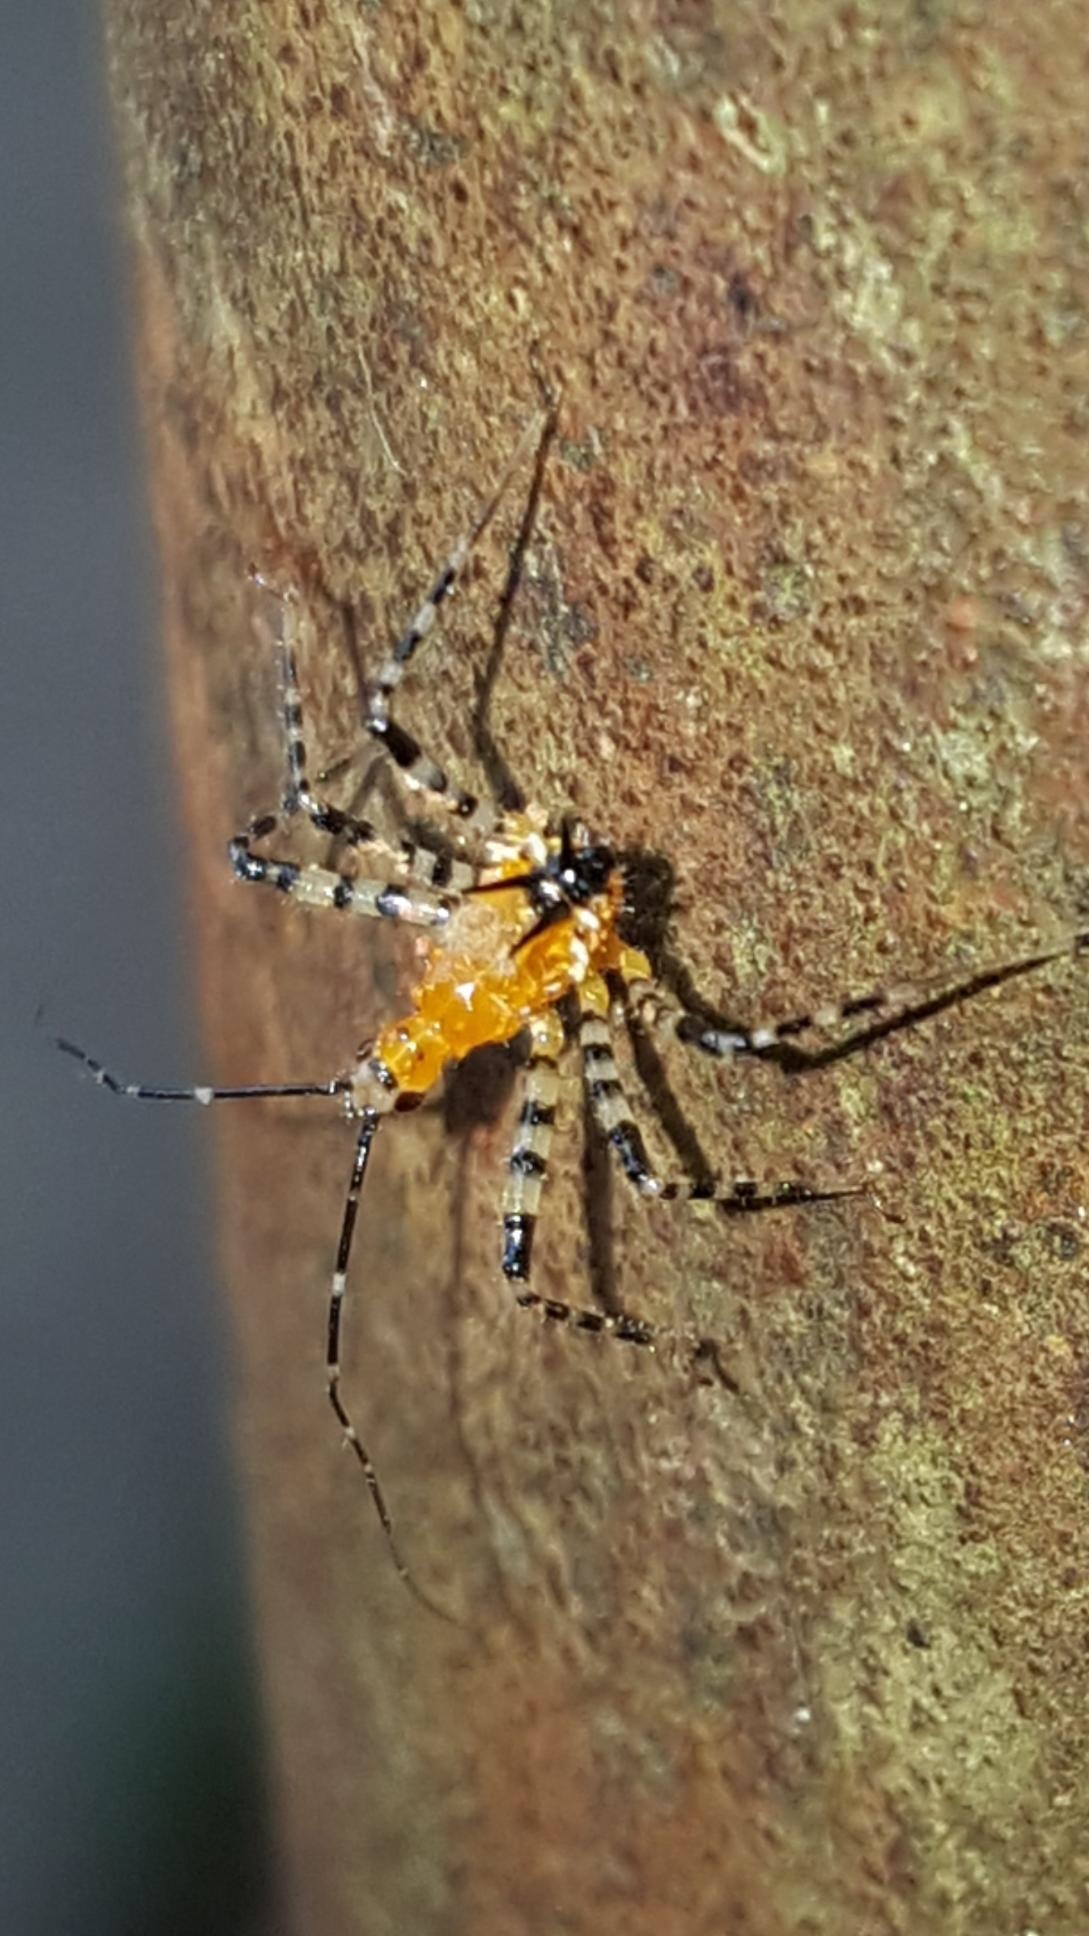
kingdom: Animalia
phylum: Arthropoda
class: Insecta
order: Hemiptera
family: Reduviidae
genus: Pselliopus
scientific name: Pselliopus barberi
